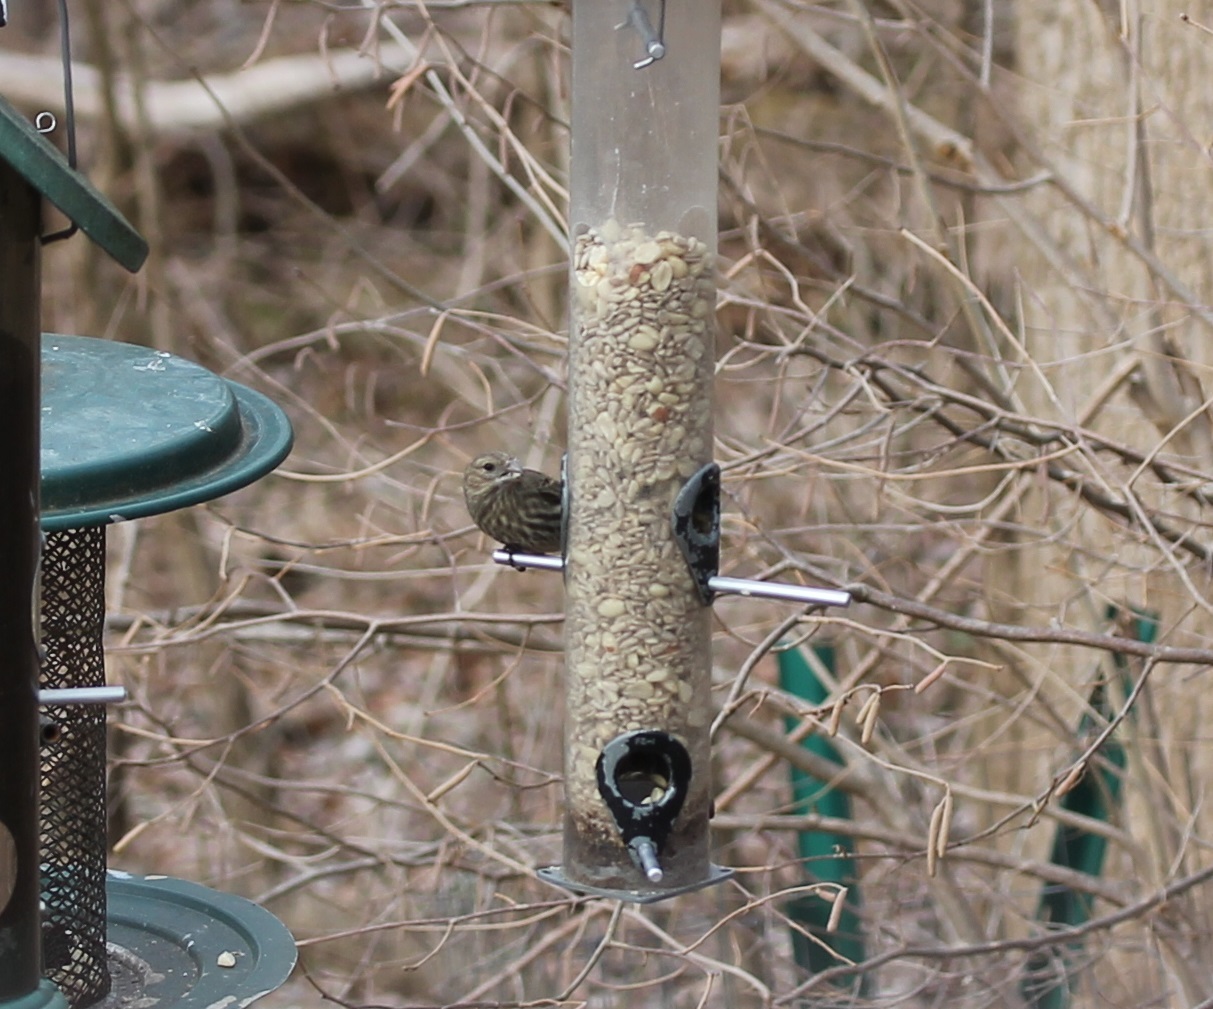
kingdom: Animalia
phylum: Chordata
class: Aves
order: Passeriformes
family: Fringillidae
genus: Haemorhous
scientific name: Haemorhous mexicanus
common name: House finch
